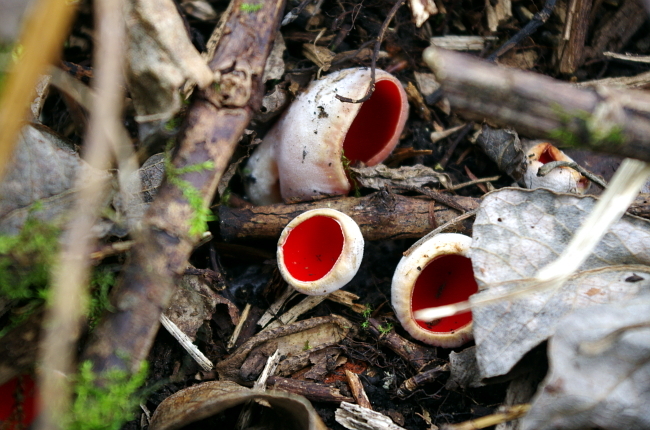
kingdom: Fungi
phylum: Ascomycota
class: Pezizomycetes
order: Pezizales
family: Sarcoscyphaceae
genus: Sarcoscypha
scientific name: Sarcoscypha austriaca
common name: Scarlet elfcup
